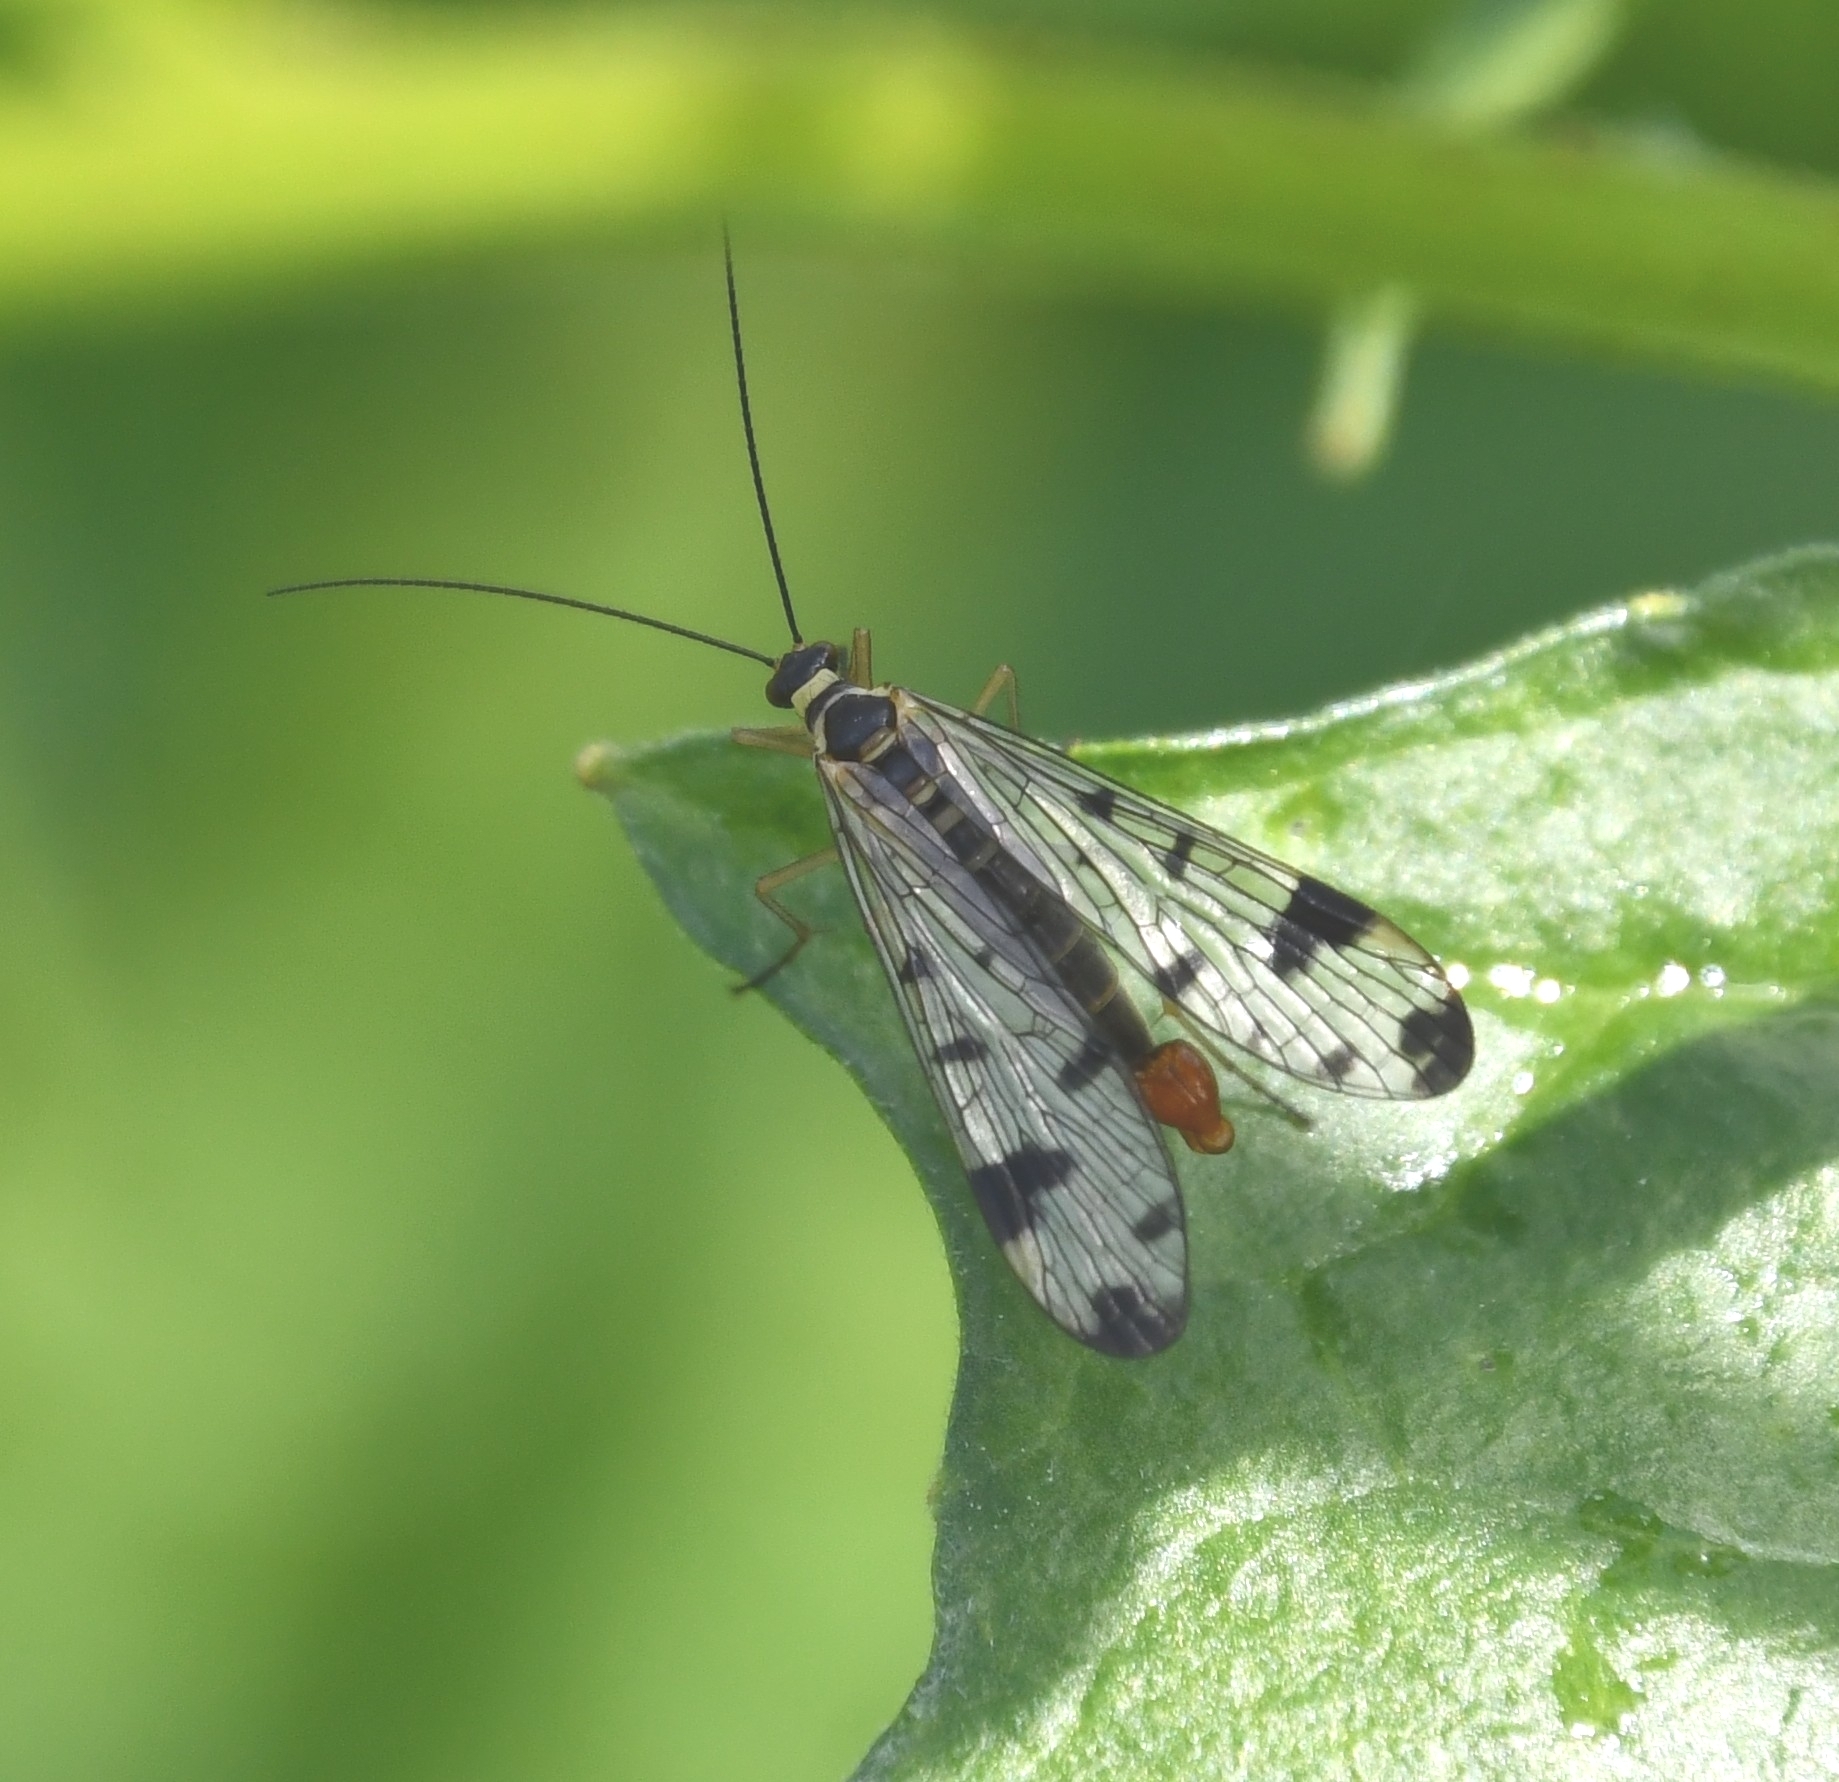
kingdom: Animalia
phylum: Arthropoda
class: Insecta
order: Mecoptera
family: Panorpidae
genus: Panorpa
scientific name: Panorpa communis
